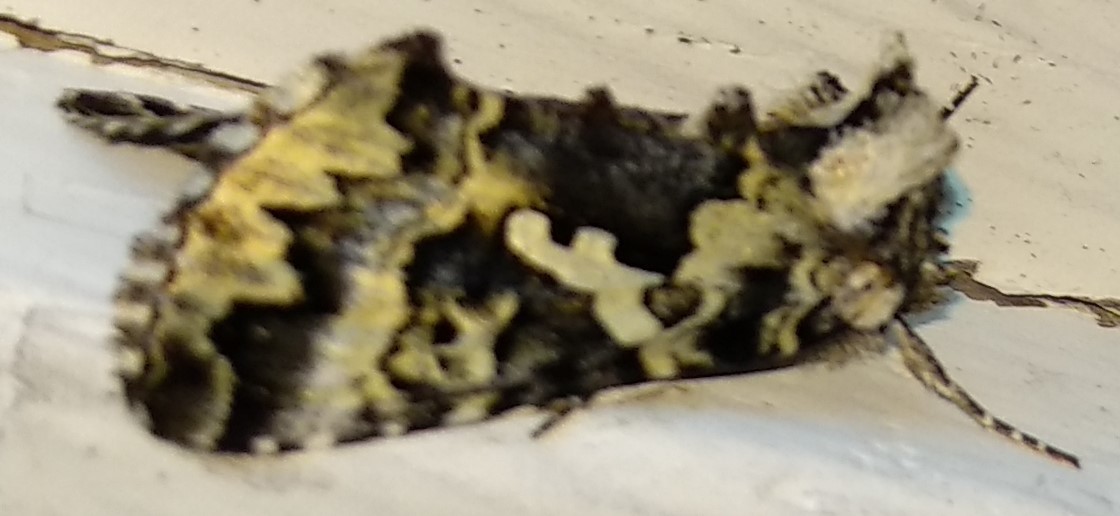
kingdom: Animalia
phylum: Arthropoda
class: Insecta
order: Lepidoptera
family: Noctuidae
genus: Syngrapha
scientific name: Syngrapha rectangula
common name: Angulated cutworm
